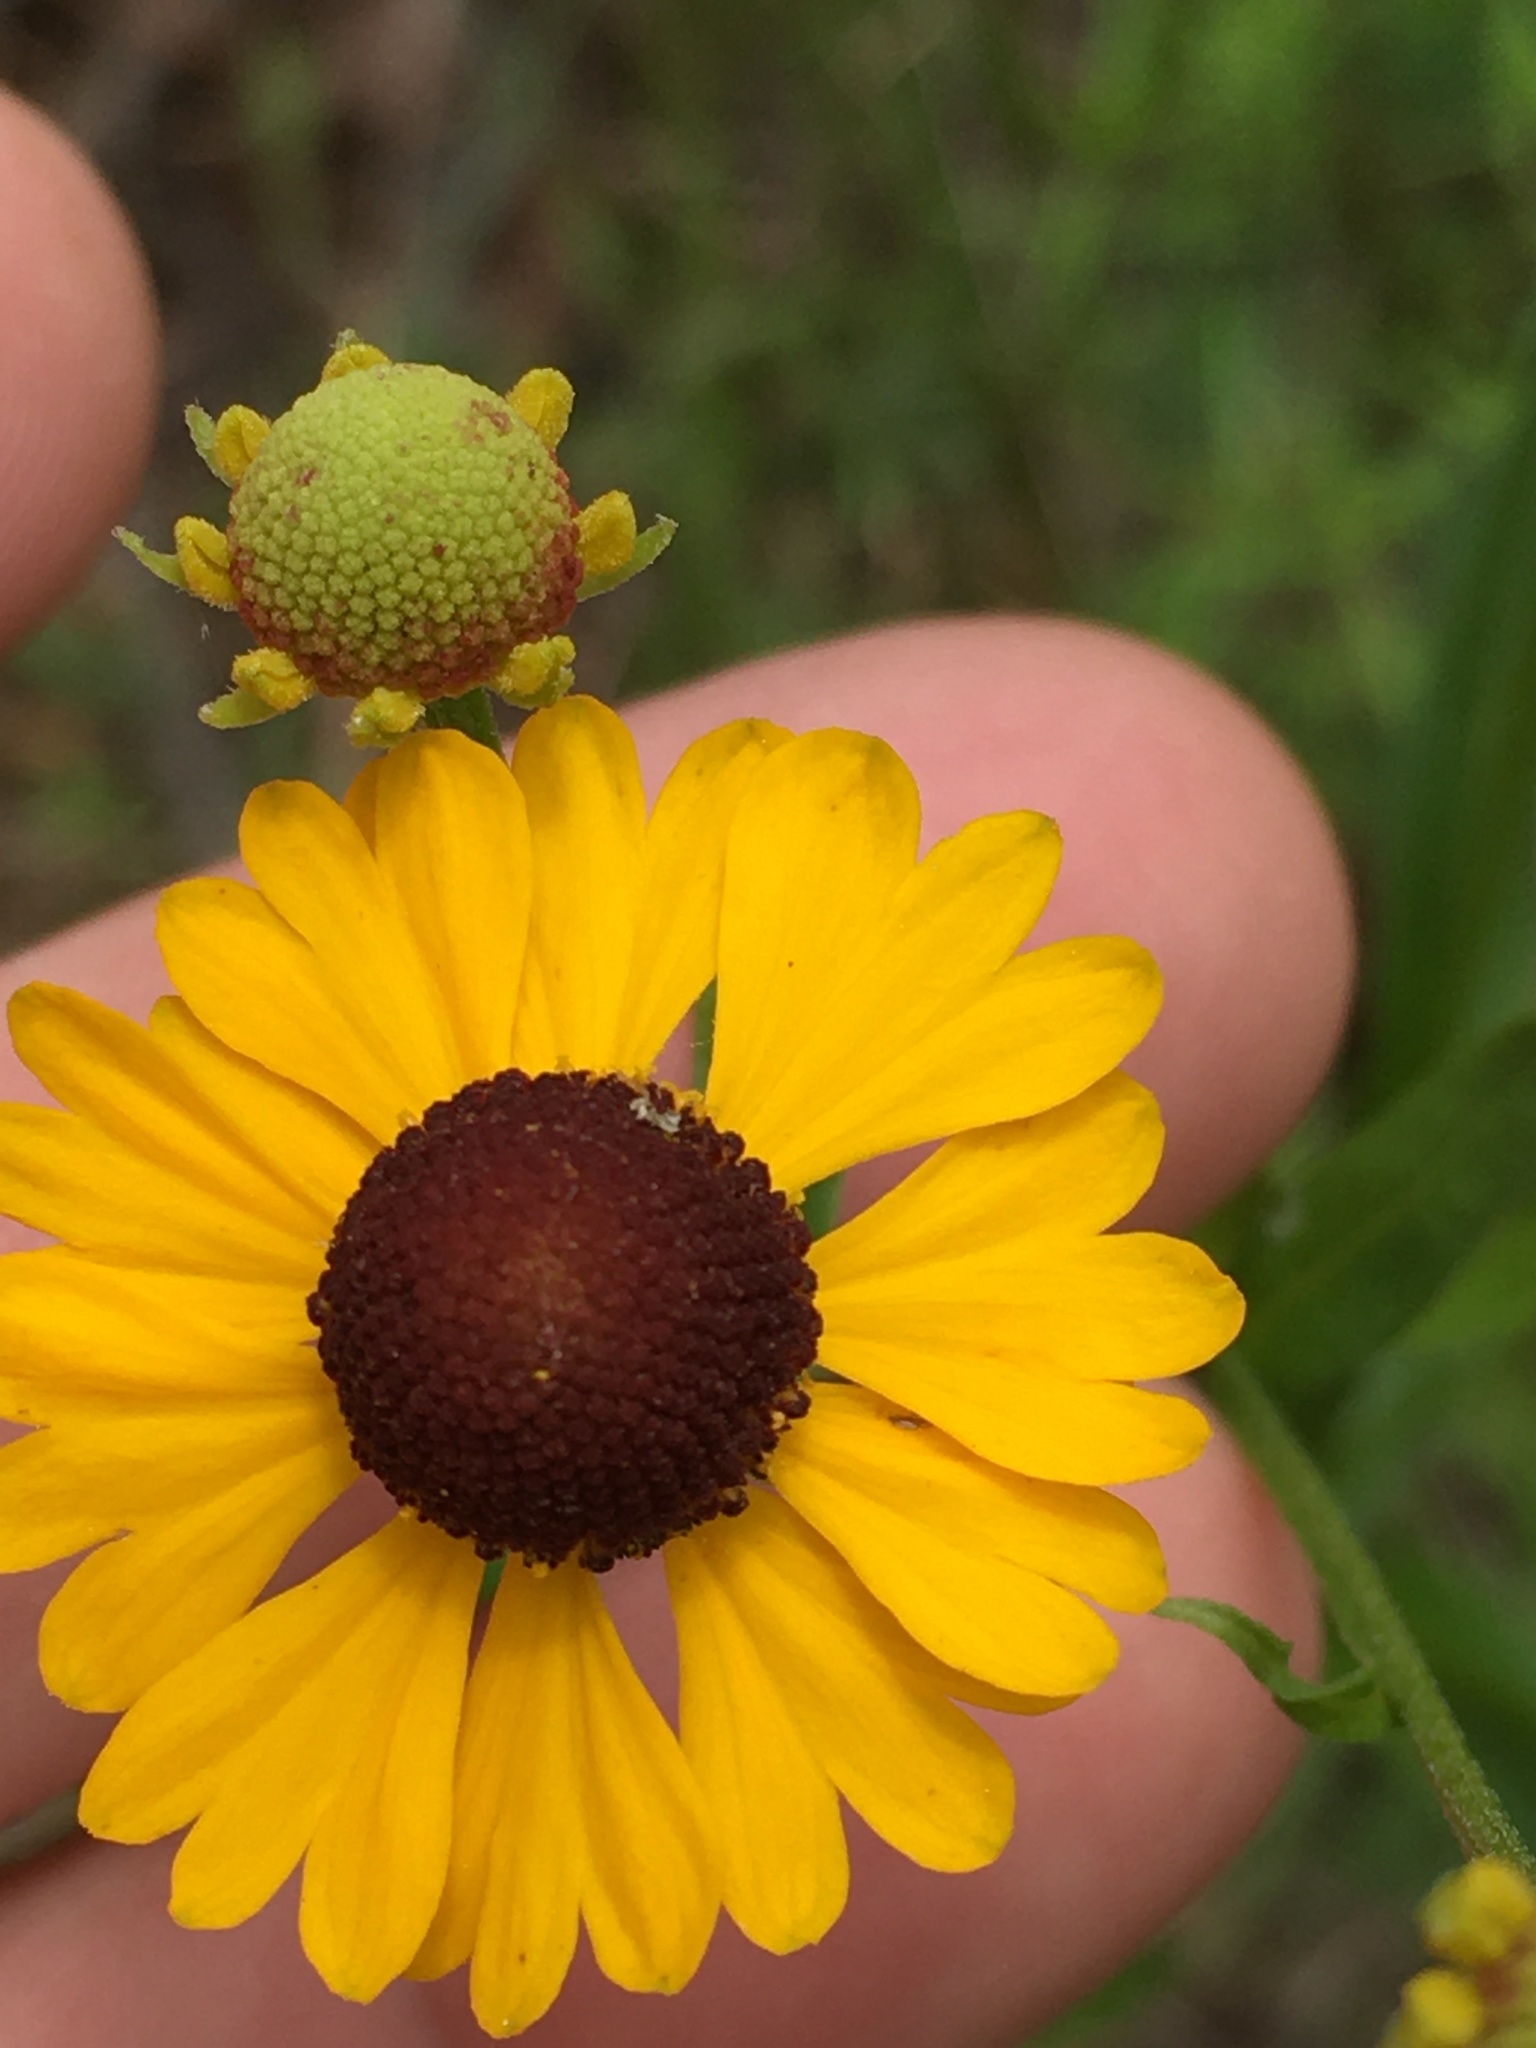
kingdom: Plantae
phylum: Tracheophyta
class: Magnoliopsida
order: Asterales
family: Asteraceae
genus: Helenium
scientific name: Helenium flexuosum
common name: Naked-flowered sneezeweed
